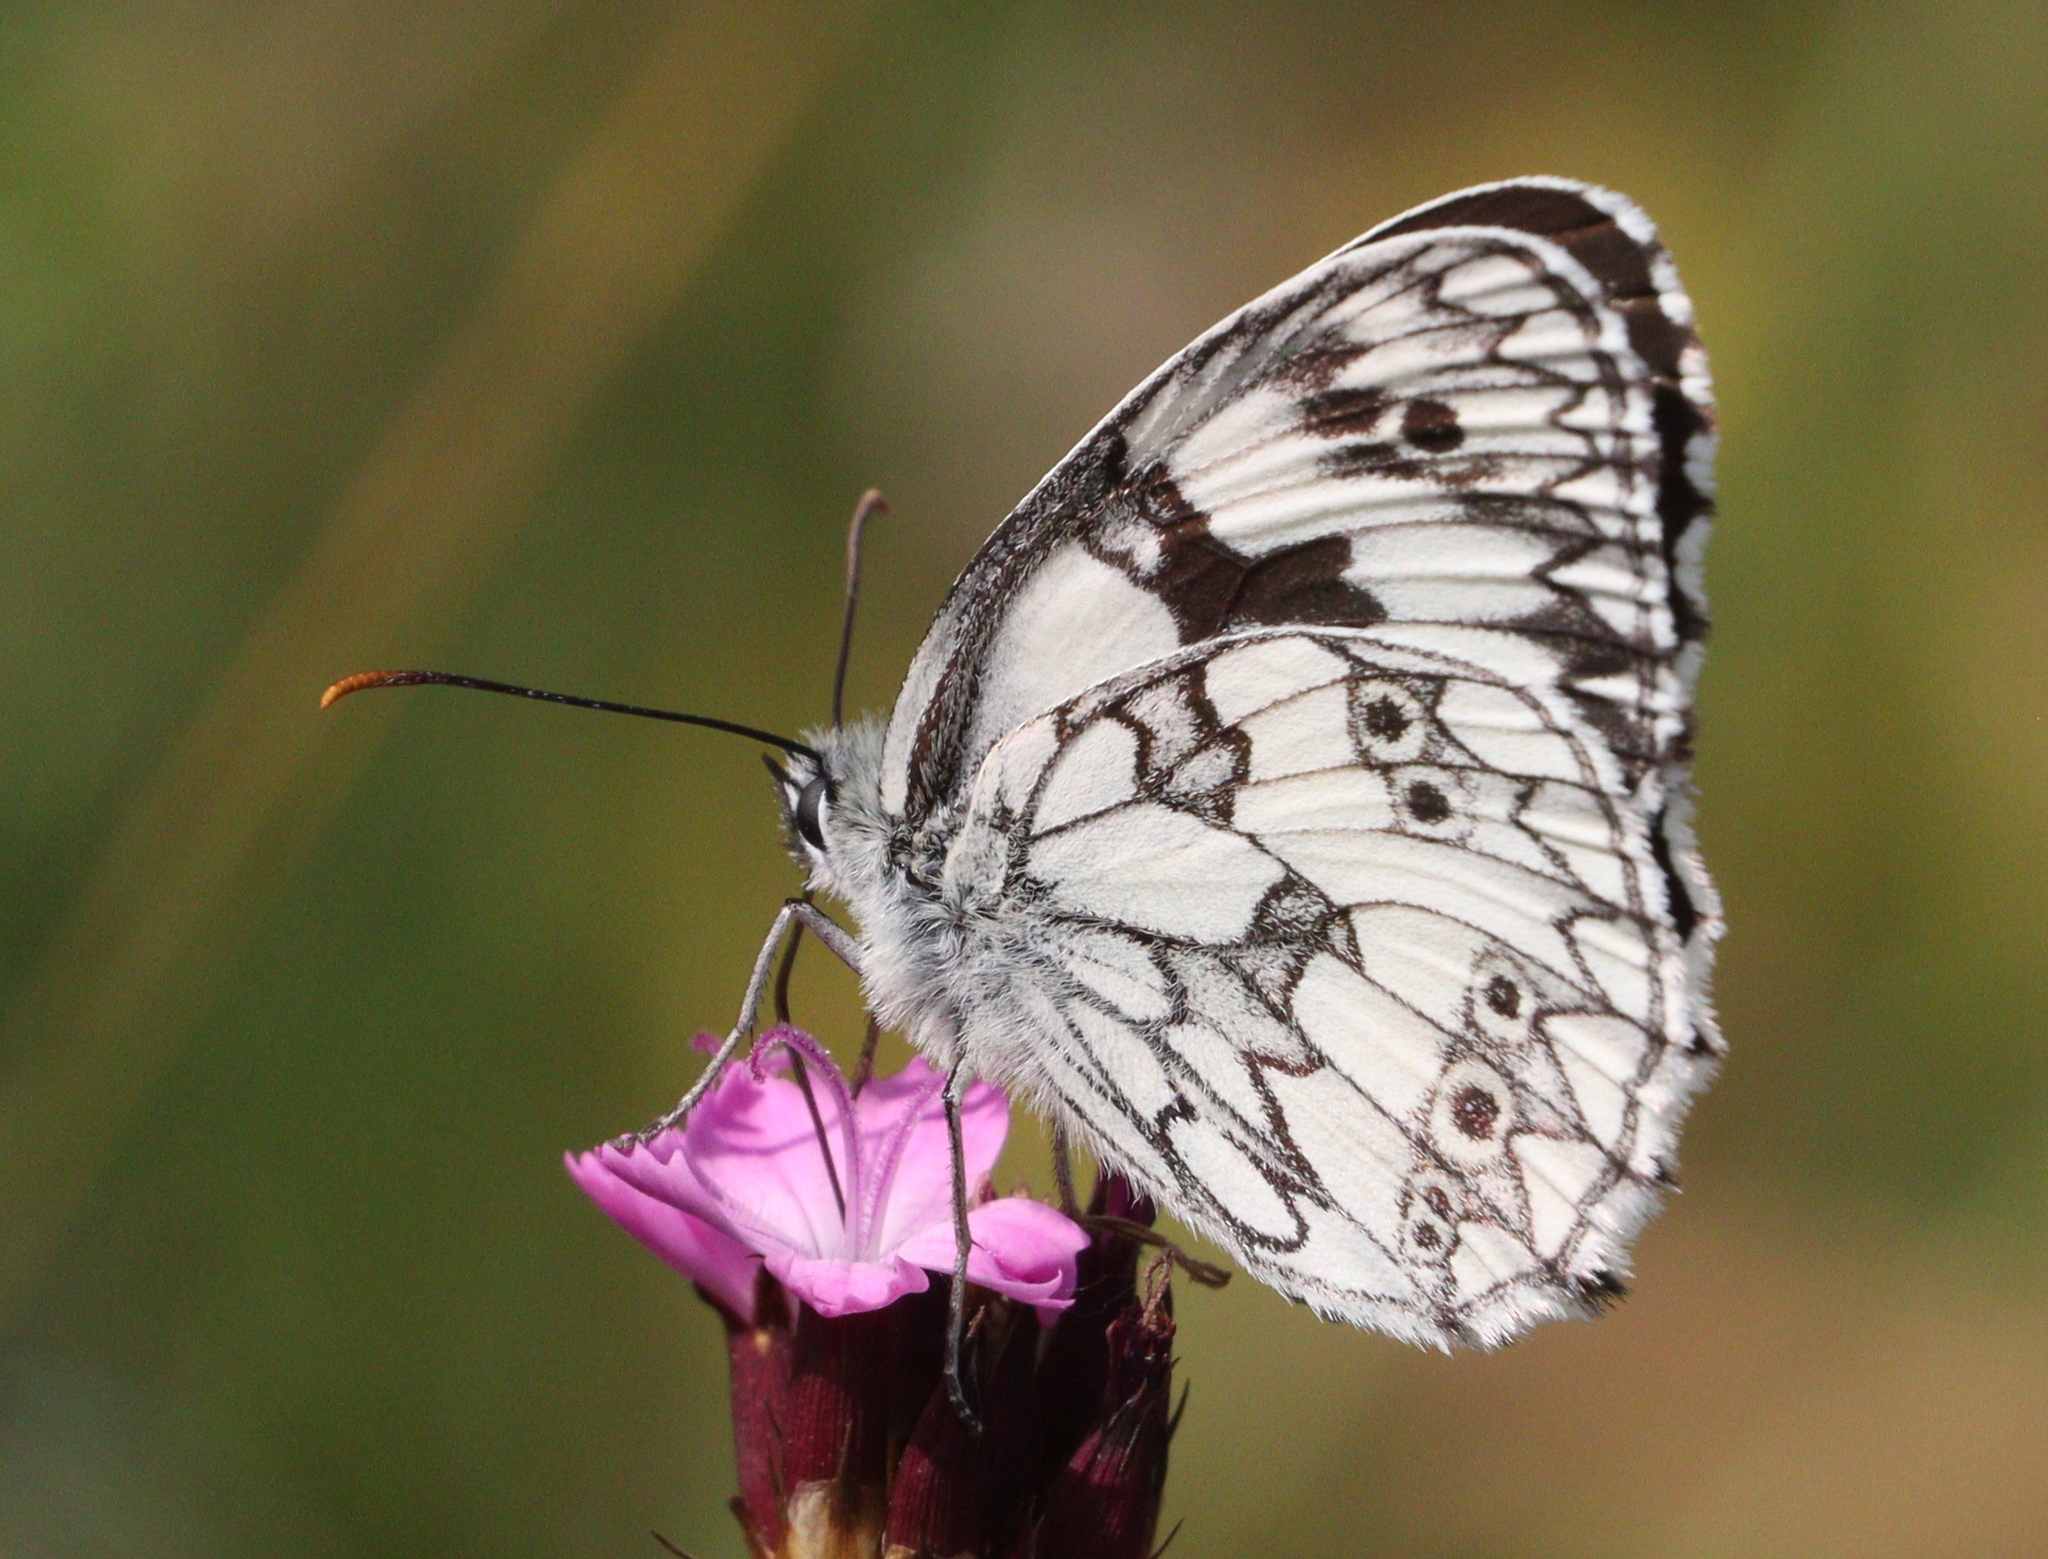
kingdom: Animalia
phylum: Arthropoda
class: Insecta
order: Lepidoptera
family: Nymphalidae
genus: Melanargia
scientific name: Melanargia galathea
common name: Marbled white
